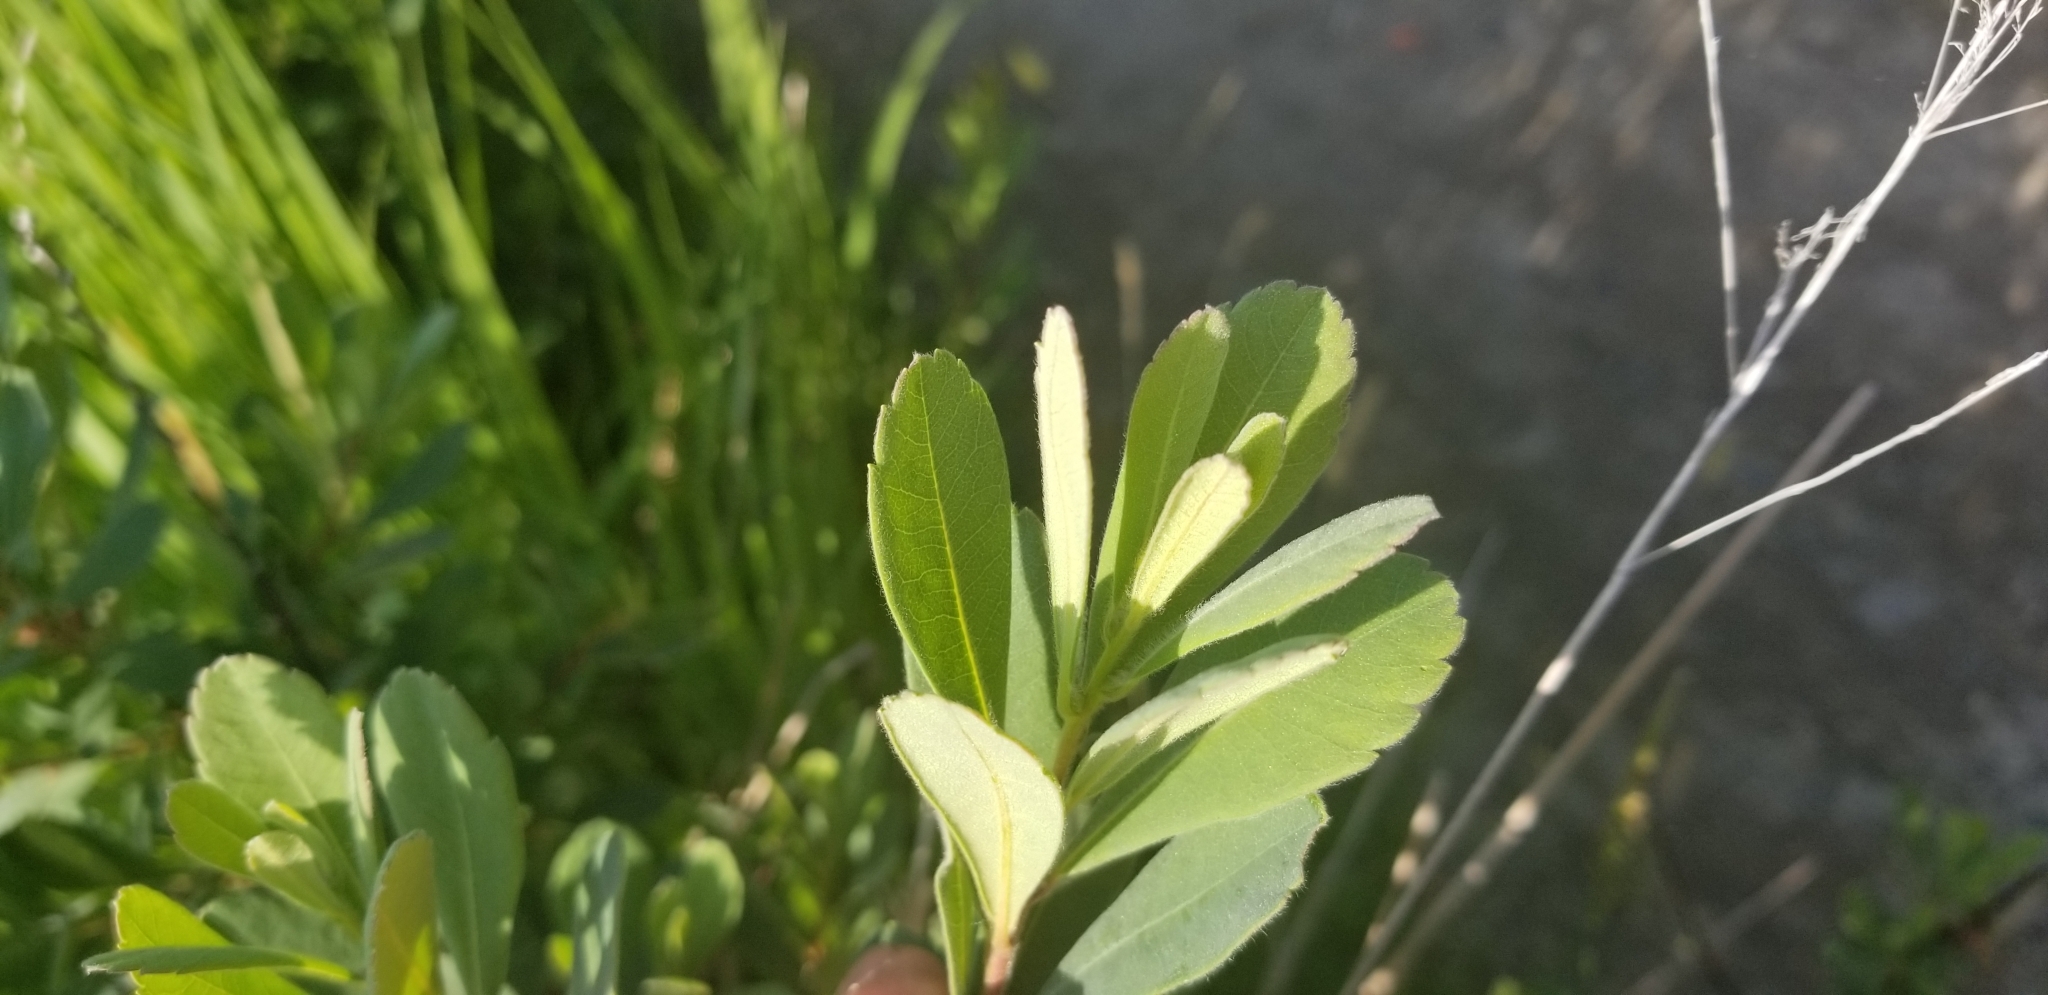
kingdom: Plantae
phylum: Tracheophyta
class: Magnoliopsida
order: Fagales
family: Myricaceae
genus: Myrica
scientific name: Myrica gale
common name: Sweet gale
